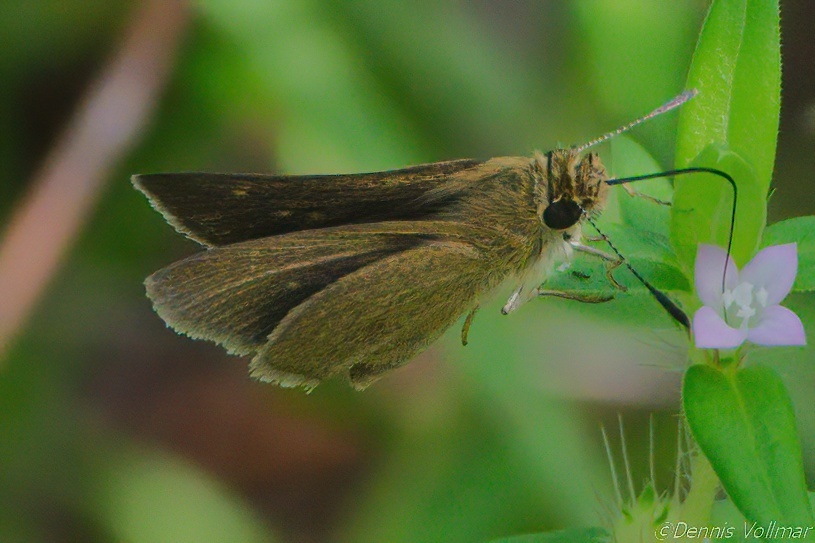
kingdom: Animalia
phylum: Arthropoda
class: Insecta
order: Lepidoptera
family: Hesperiidae
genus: Nastra
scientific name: Nastra
